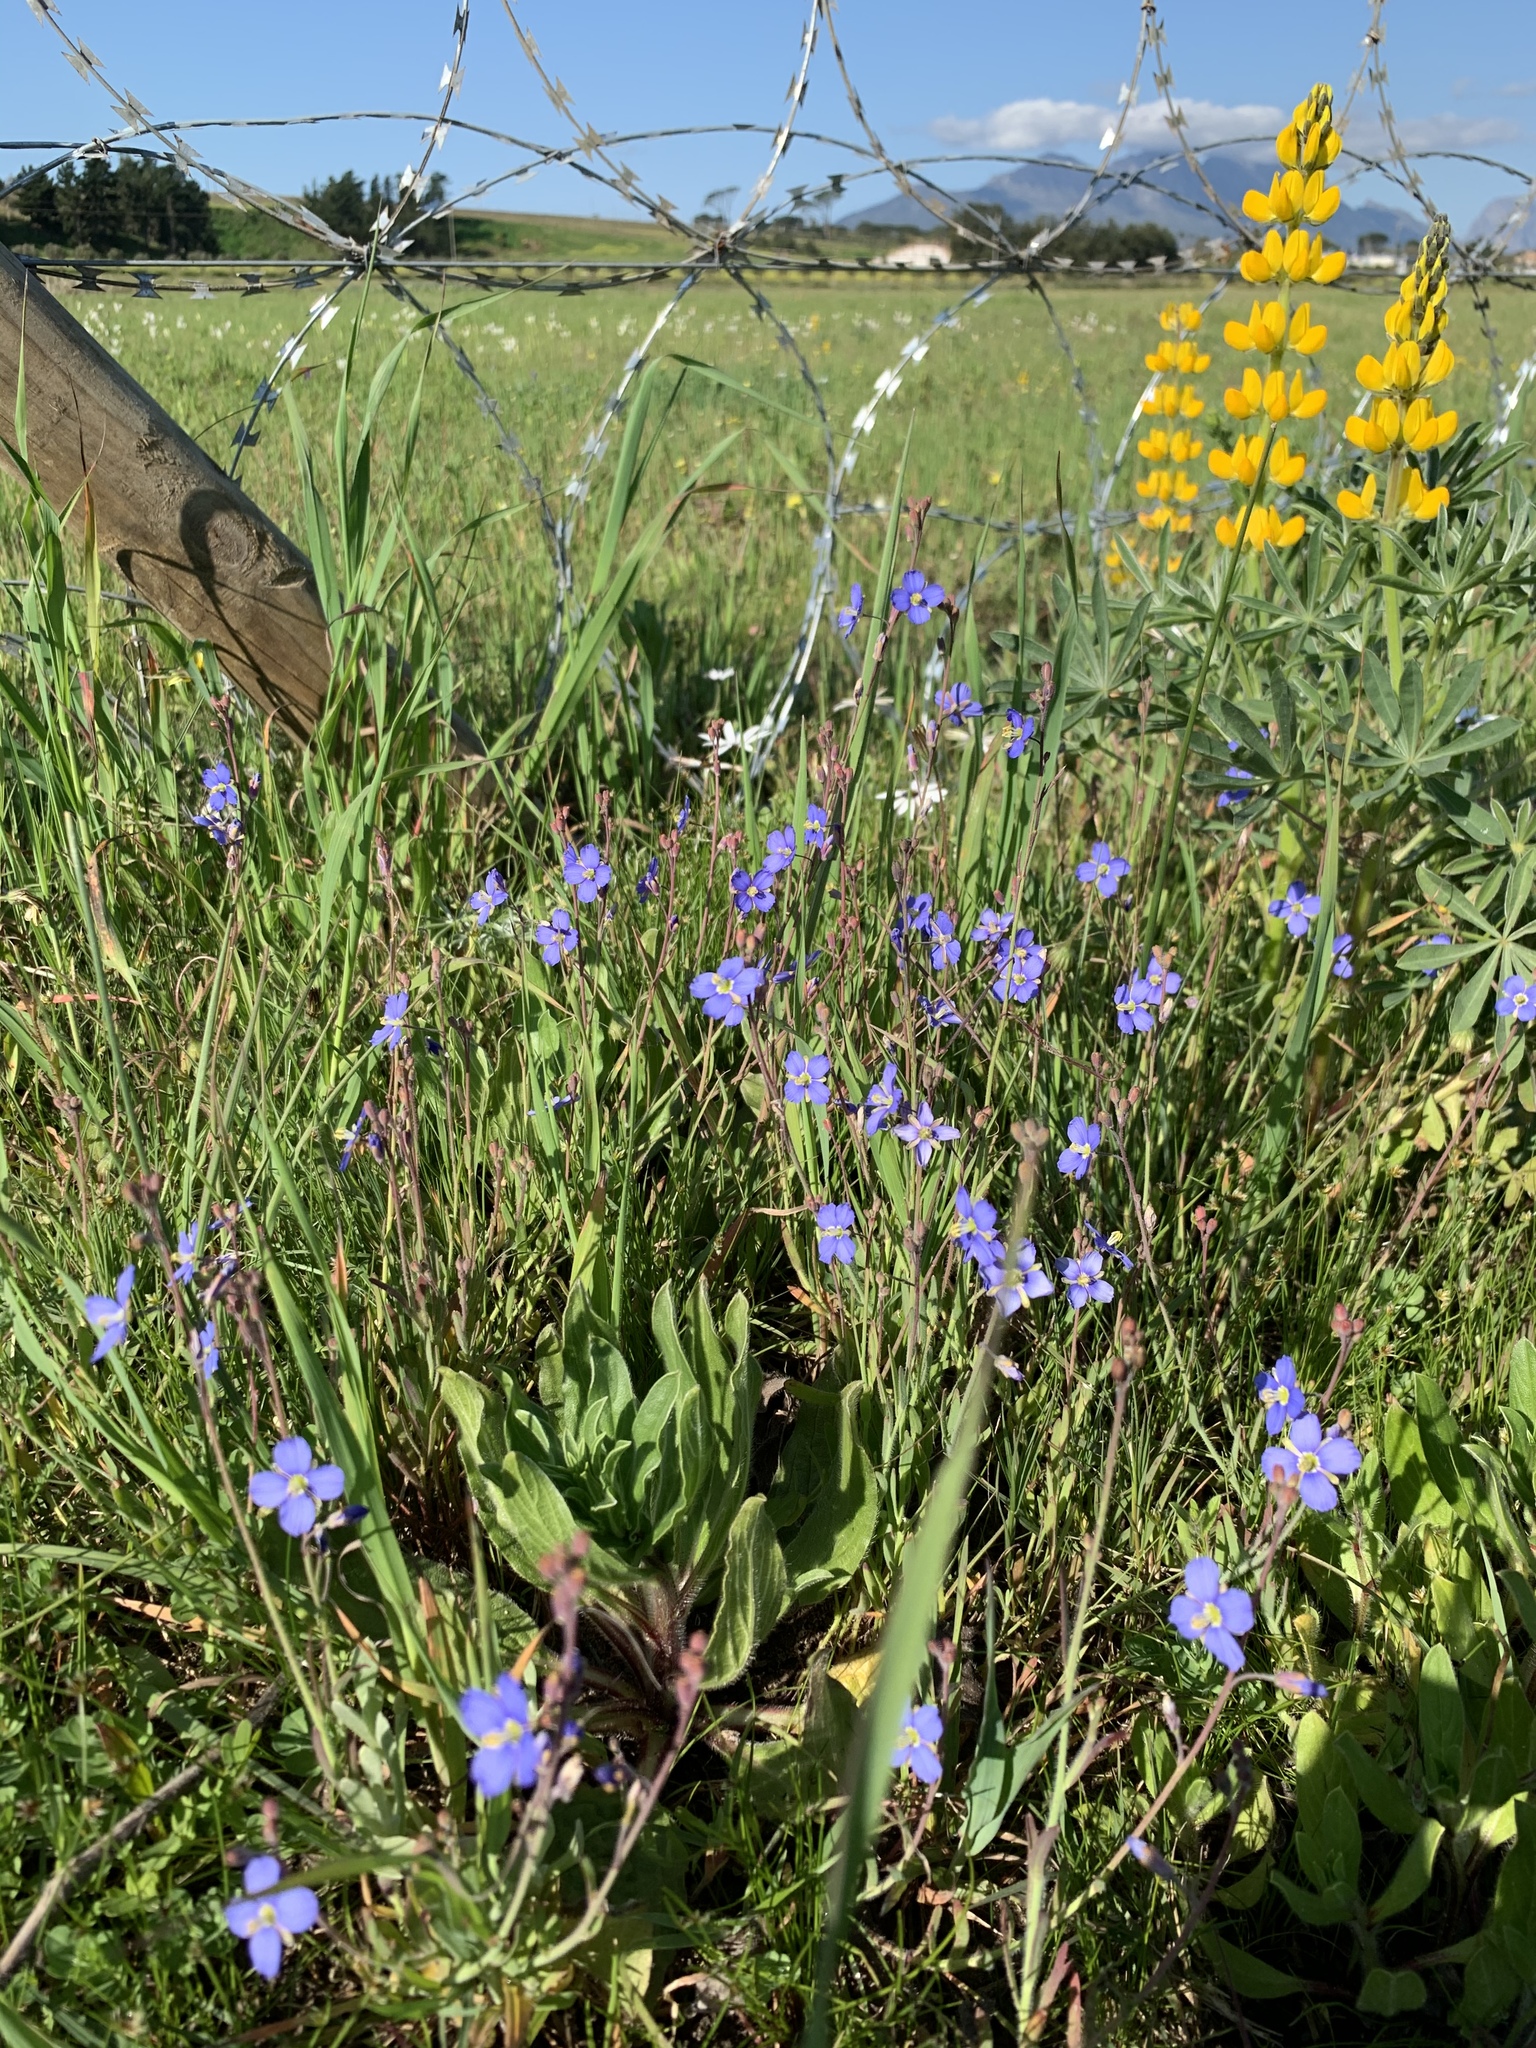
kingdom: Plantae
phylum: Tracheophyta
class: Magnoliopsida
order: Brassicales
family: Brassicaceae
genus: Heliophila
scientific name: Heliophila africana
